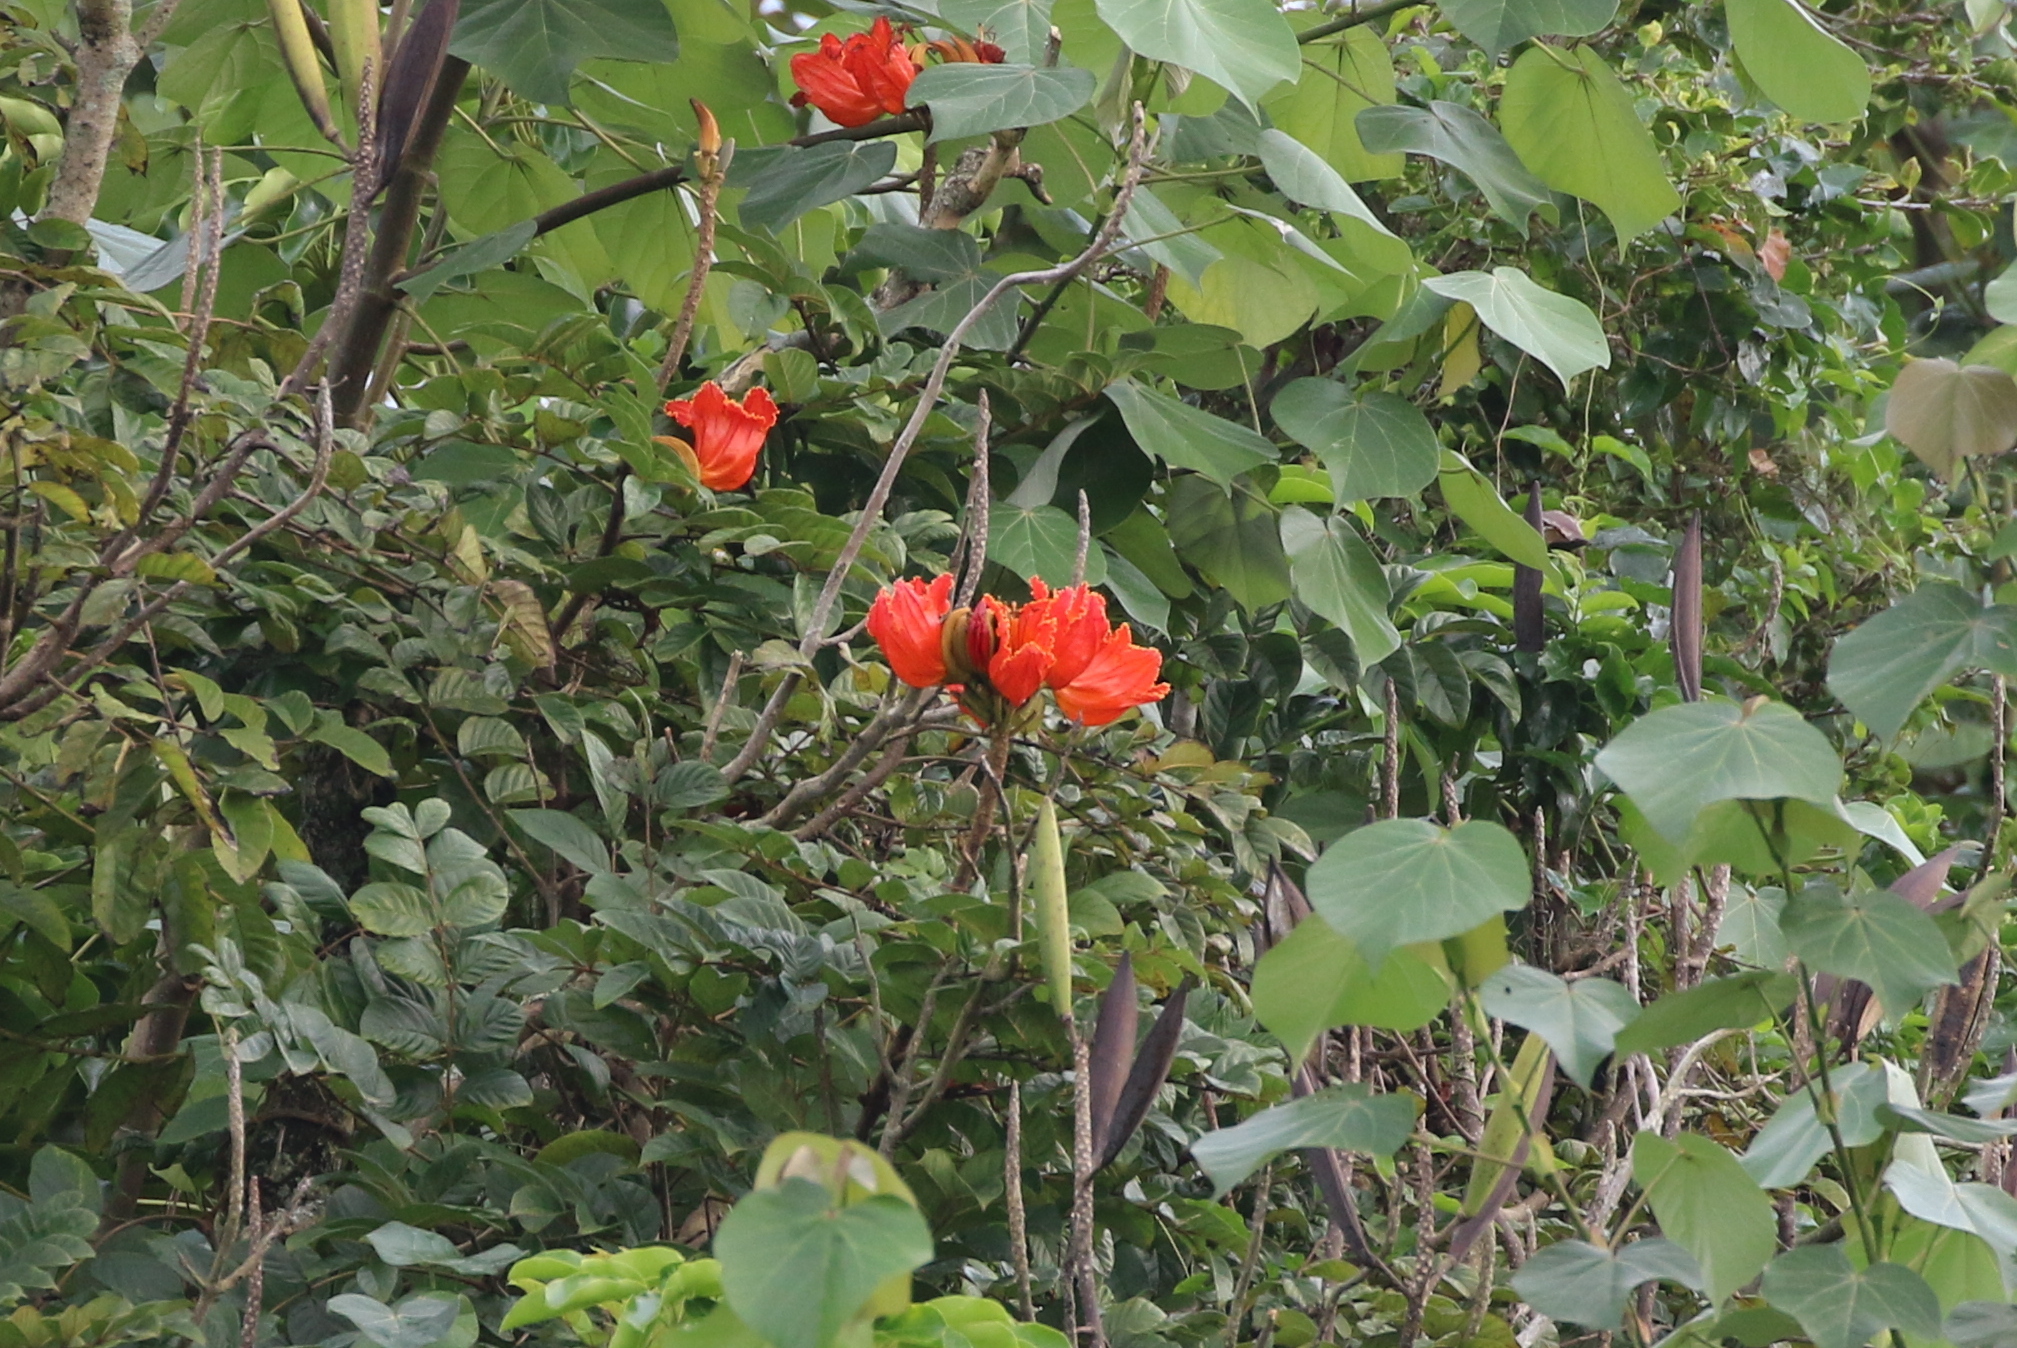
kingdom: Plantae
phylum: Tracheophyta
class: Magnoliopsida
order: Lamiales
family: Bignoniaceae
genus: Spathodea
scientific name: Spathodea campanulata
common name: African tuliptree
